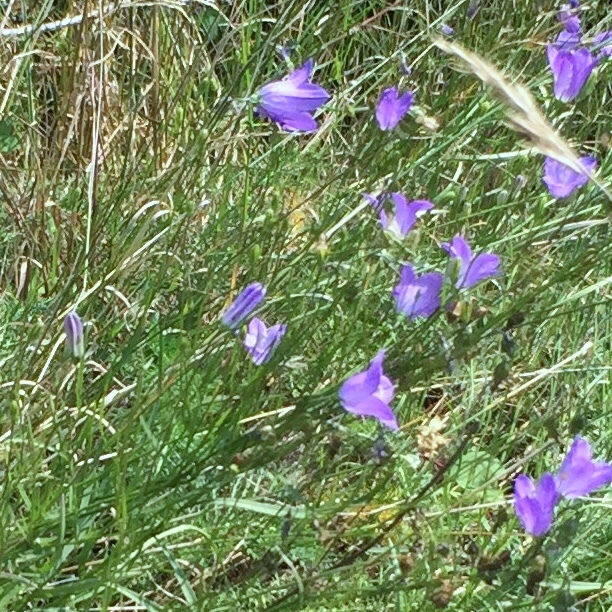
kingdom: Plantae
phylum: Tracheophyta
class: Magnoliopsida
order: Asterales
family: Campanulaceae
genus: Campanula
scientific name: Campanula petiolata
